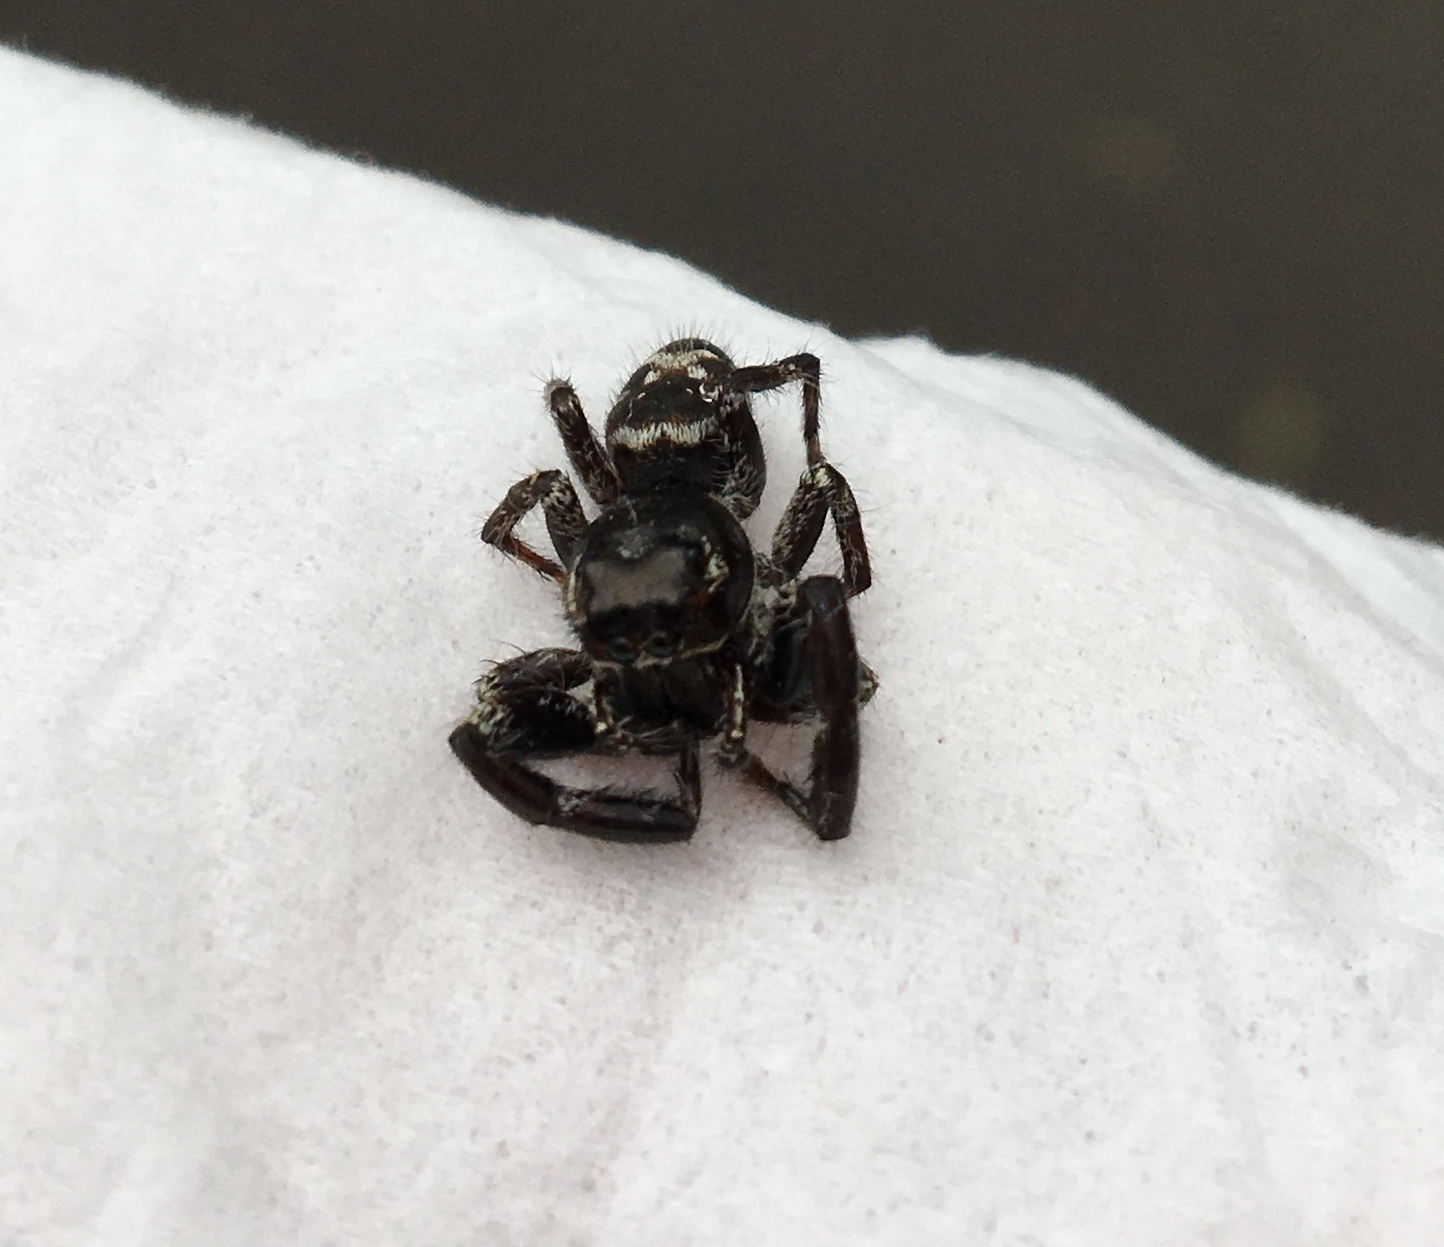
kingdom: Animalia
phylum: Arthropoda
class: Arachnida
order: Araneae
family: Salticidae
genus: Sandalodes
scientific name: Sandalodes superbus
